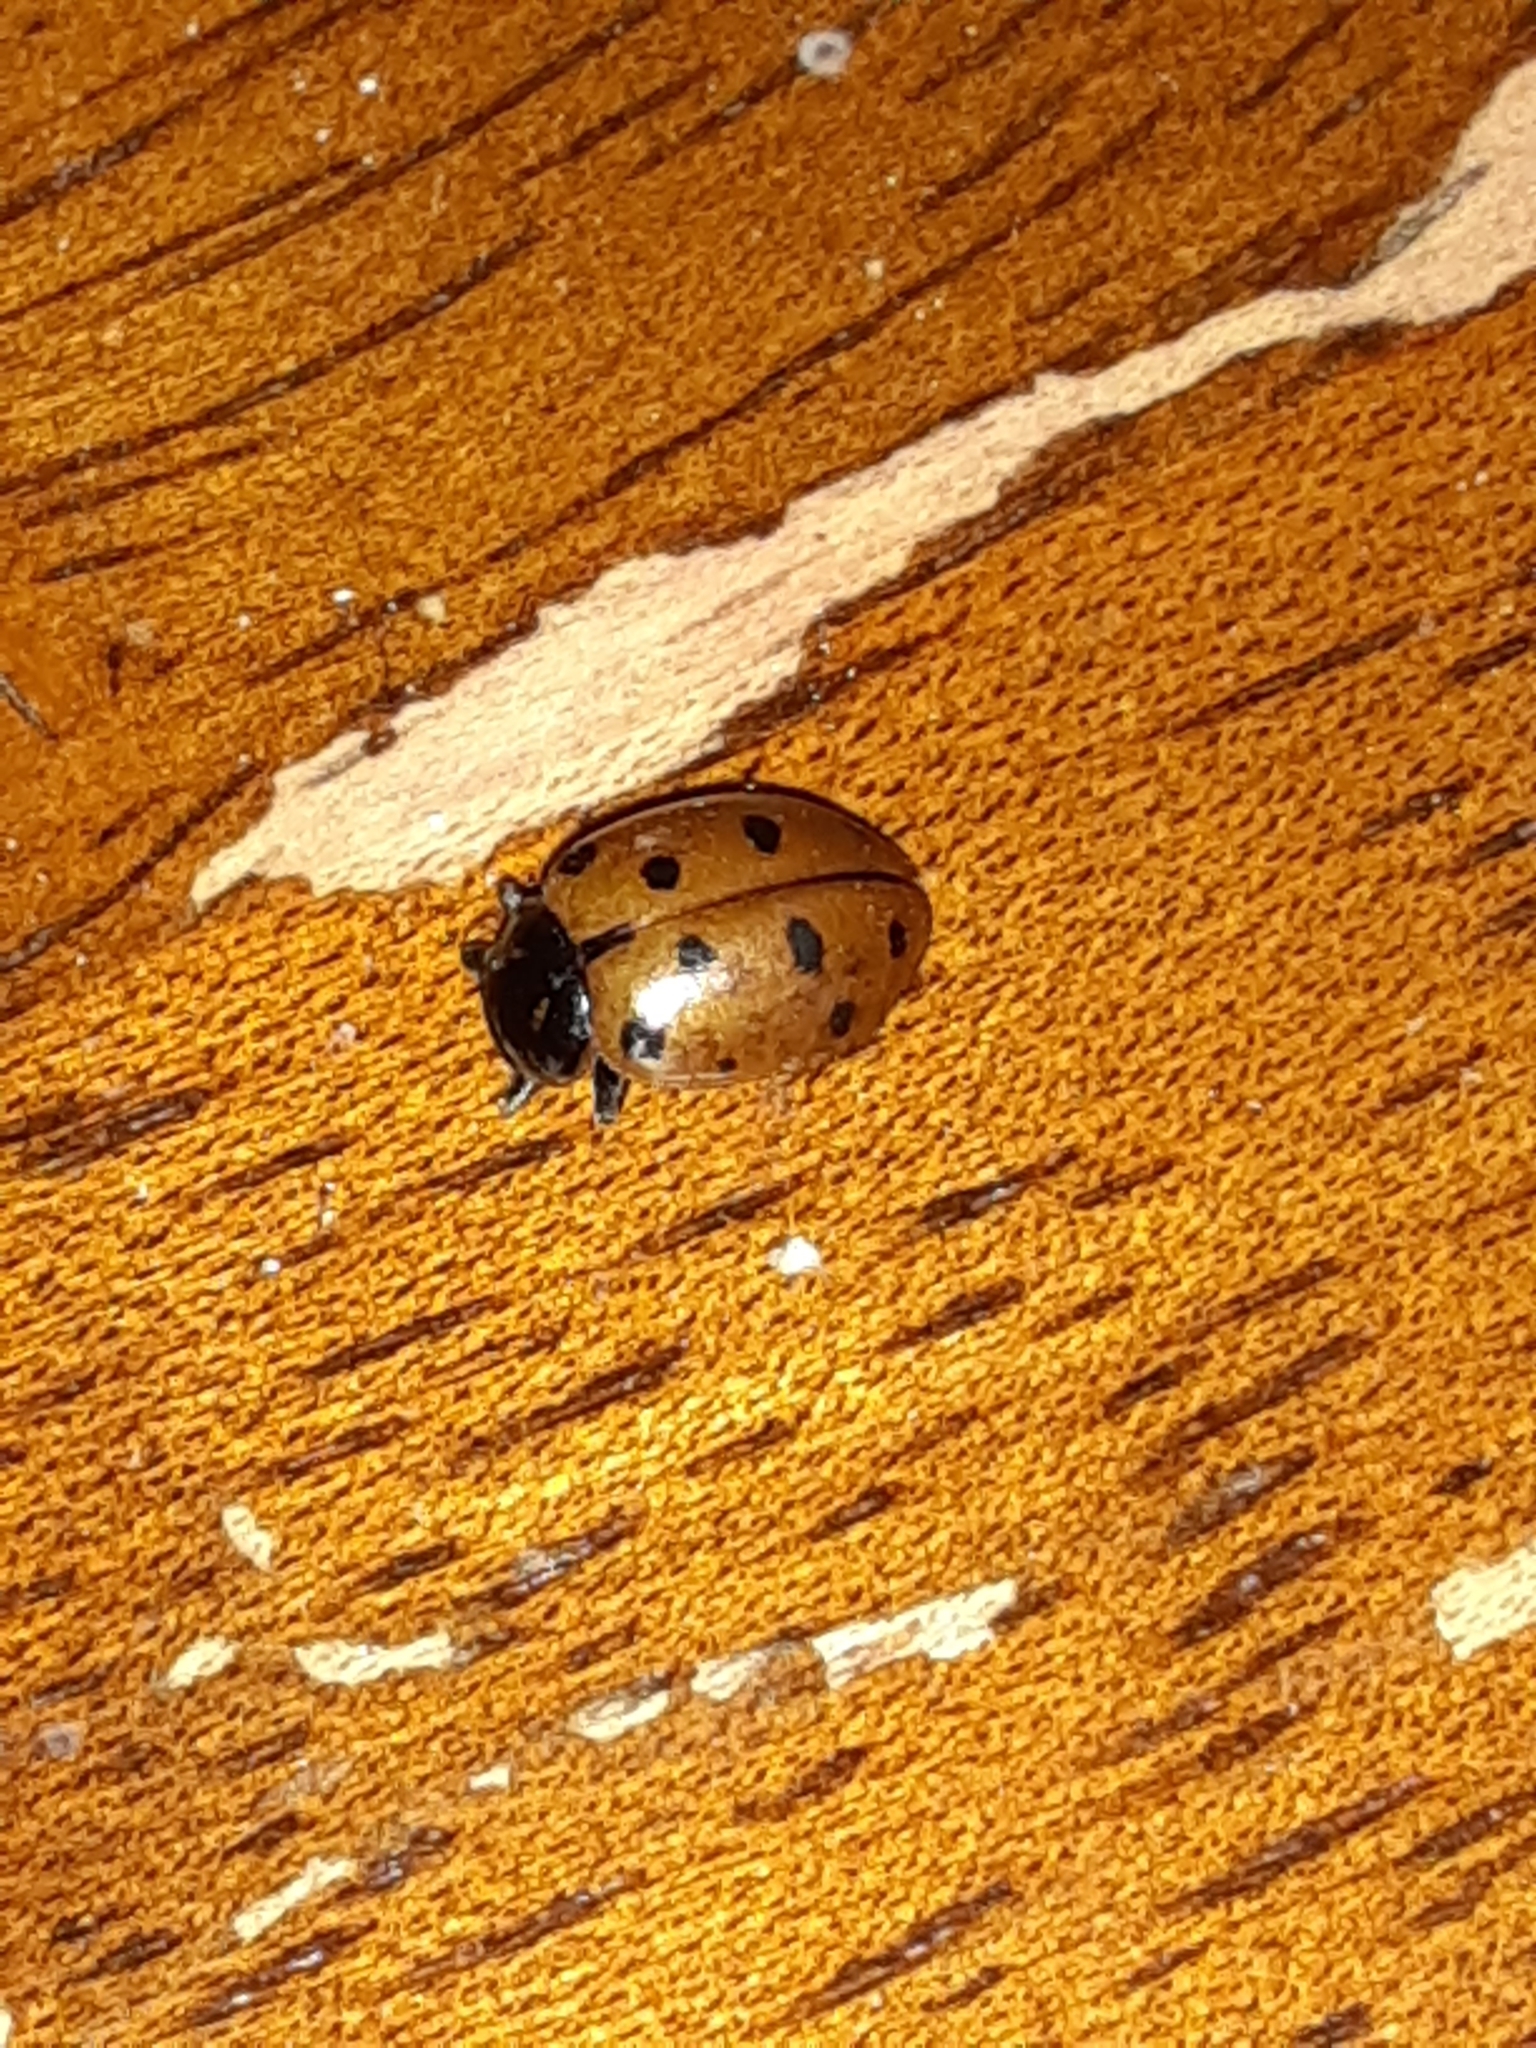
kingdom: Animalia
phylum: Arthropoda
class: Insecta
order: Coleoptera
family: Coccinellidae
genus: Hippodamia
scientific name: Hippodamia convergens
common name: Convergent lady beetle
